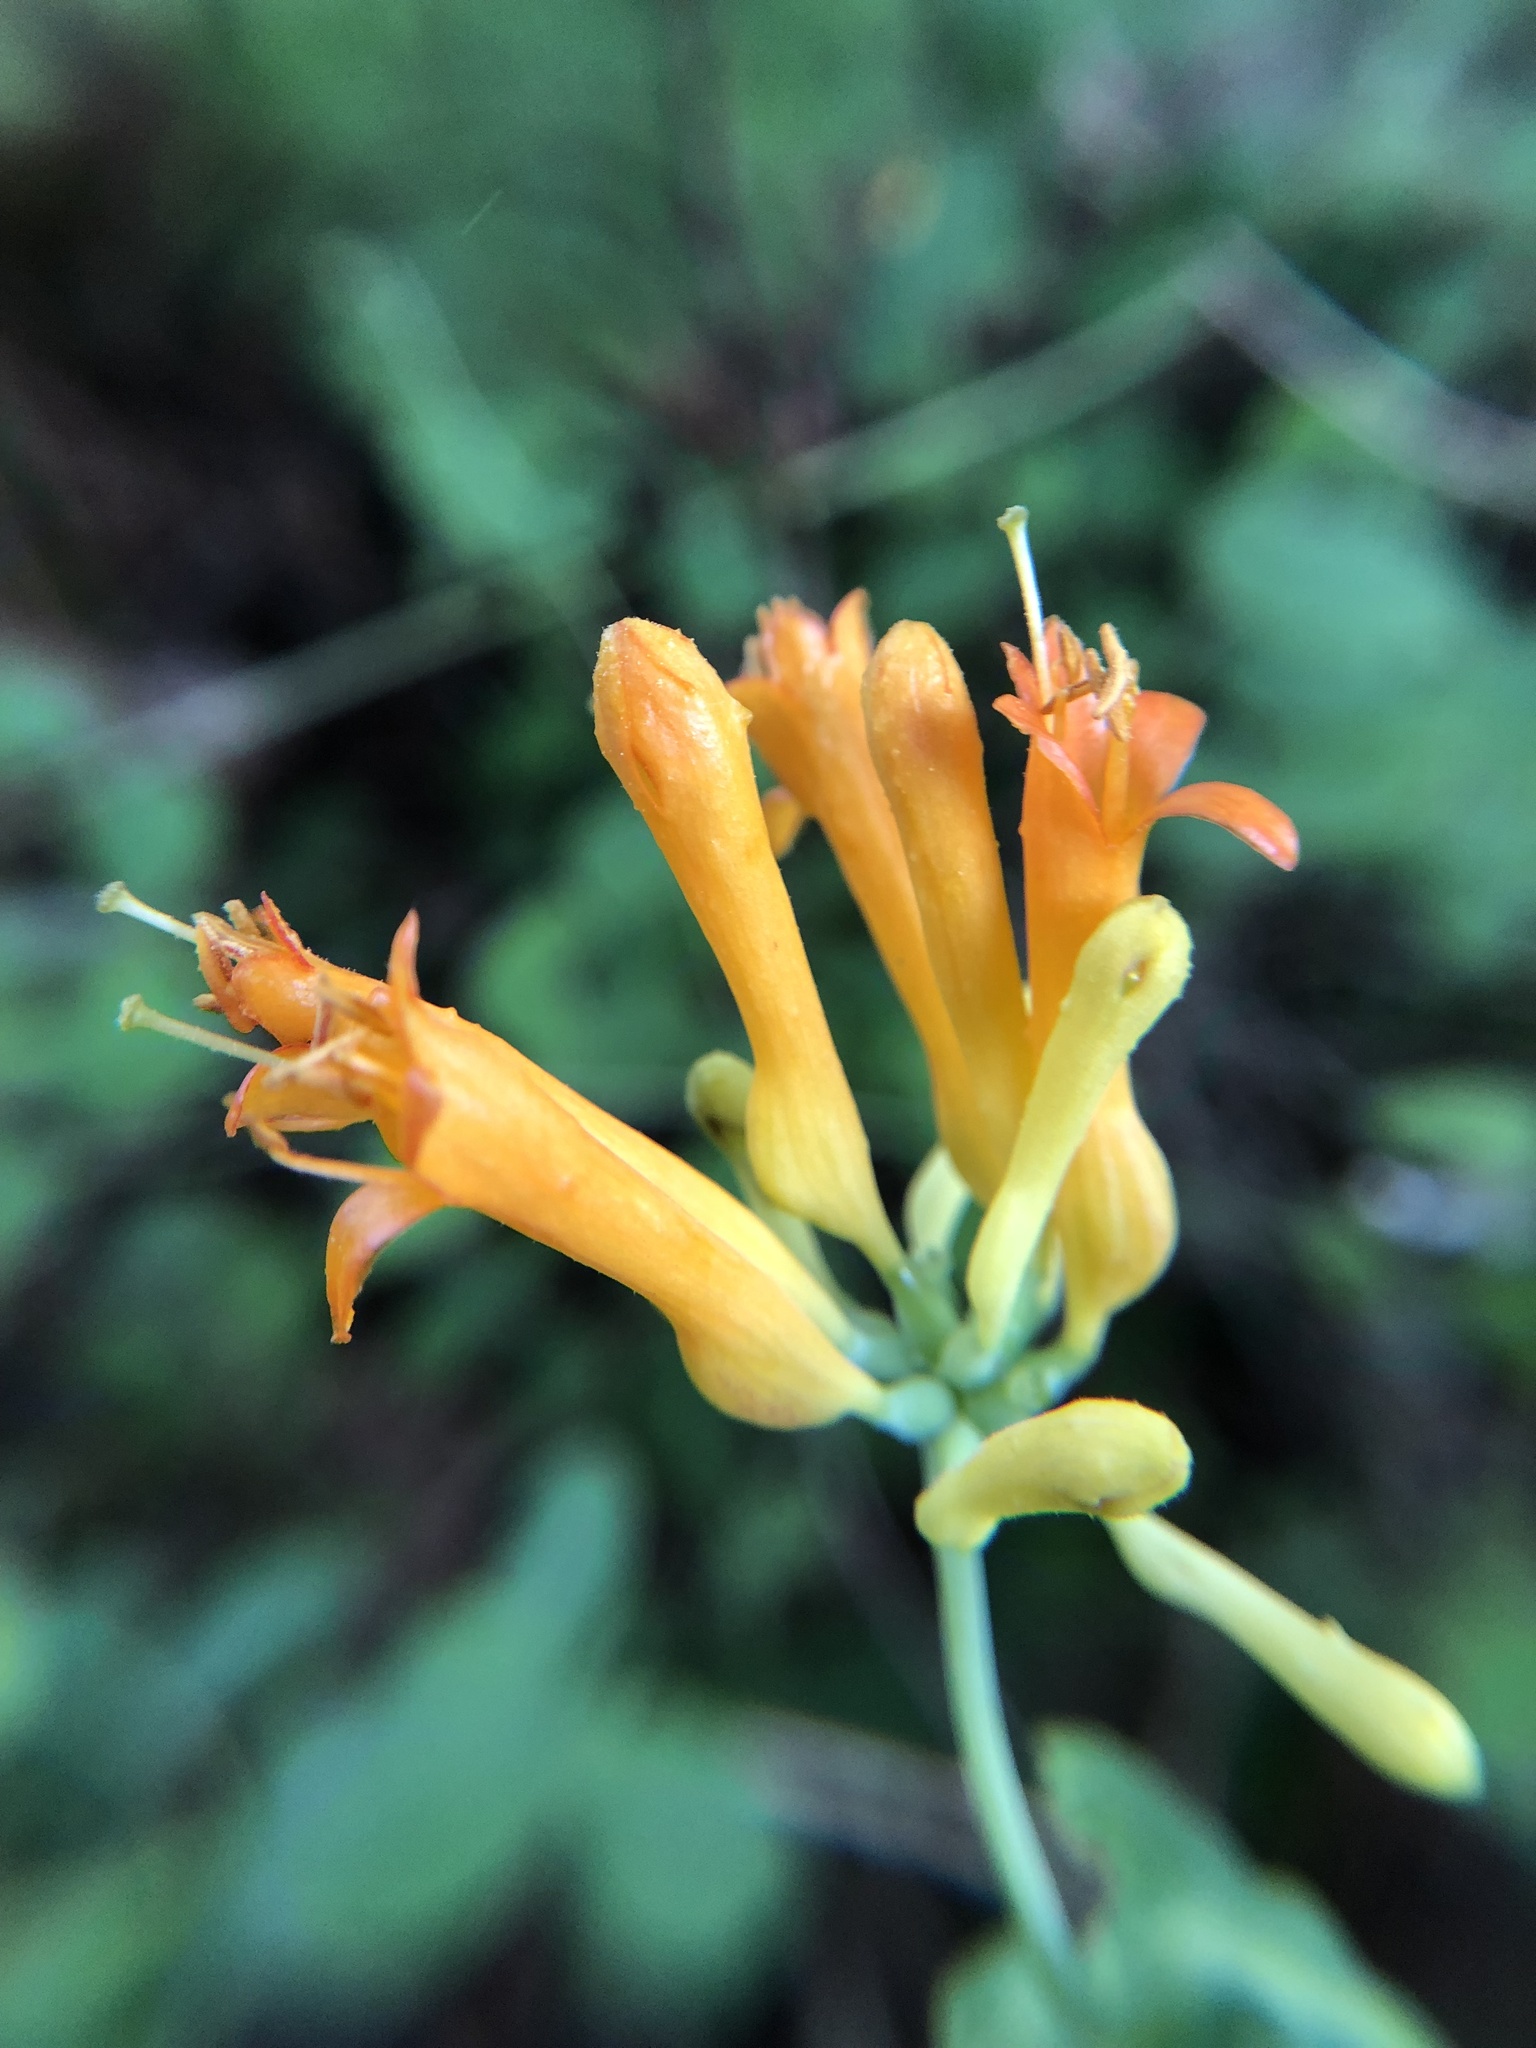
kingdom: Plantae
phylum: Tracheophyta
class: Magnoliopsida
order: Dipsacales
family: Caprifoliaceae
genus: Lonicera
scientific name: Lonicera ciliosa
